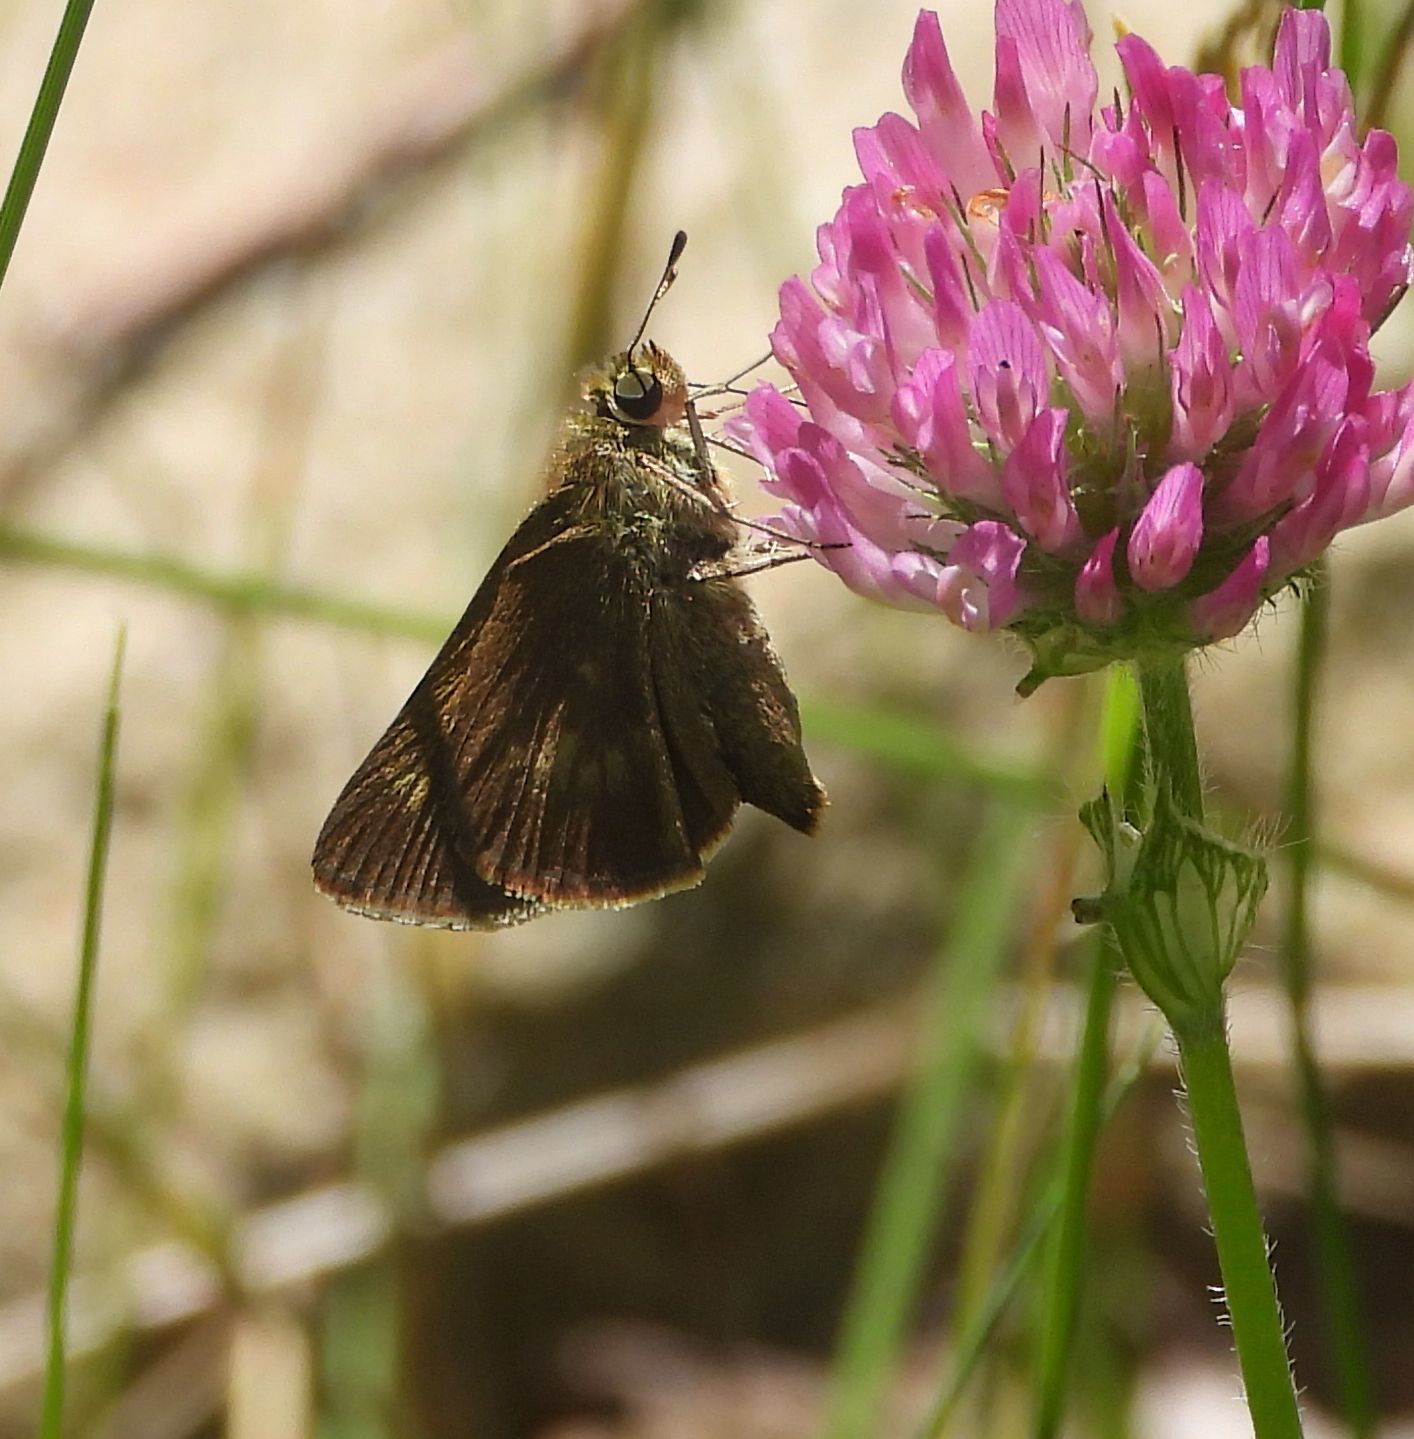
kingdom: Animalia
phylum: Arthropoda
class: Insecta
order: Lepidoptera
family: Hesperiidae
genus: Polites
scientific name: Polites egeremet
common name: Northern broken-dash
